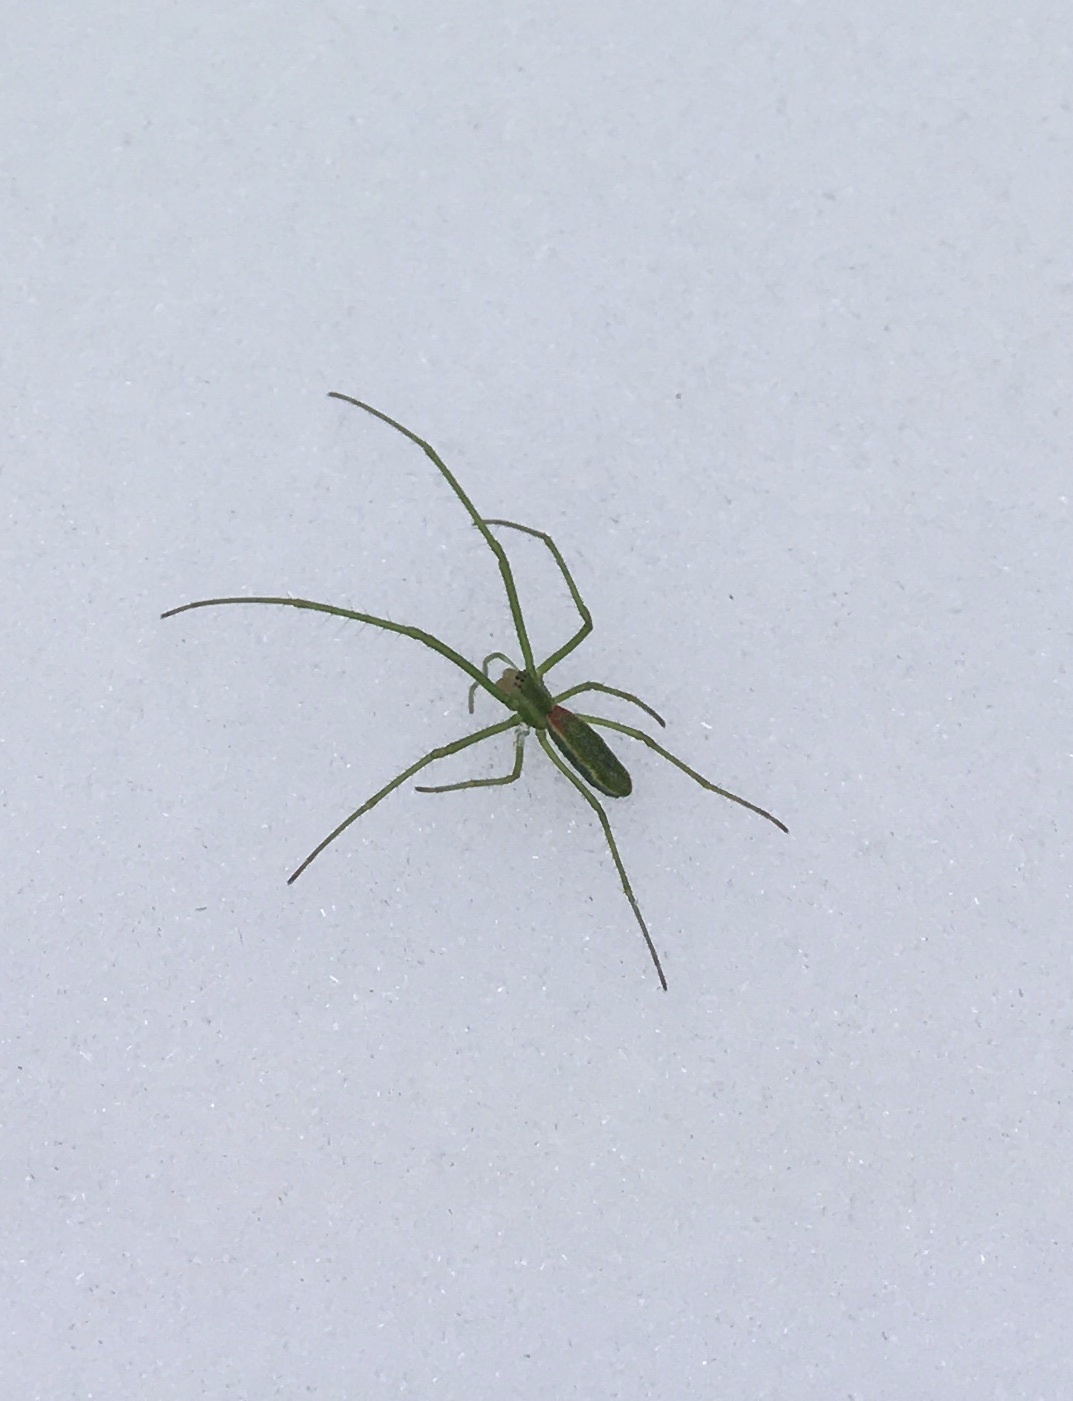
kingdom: Animalia
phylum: Arthropoda
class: Arachnida
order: Araneae
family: Tetragnathidae
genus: Tetragnatha
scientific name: Tetragnatha viridis
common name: Green long-jawed spider
